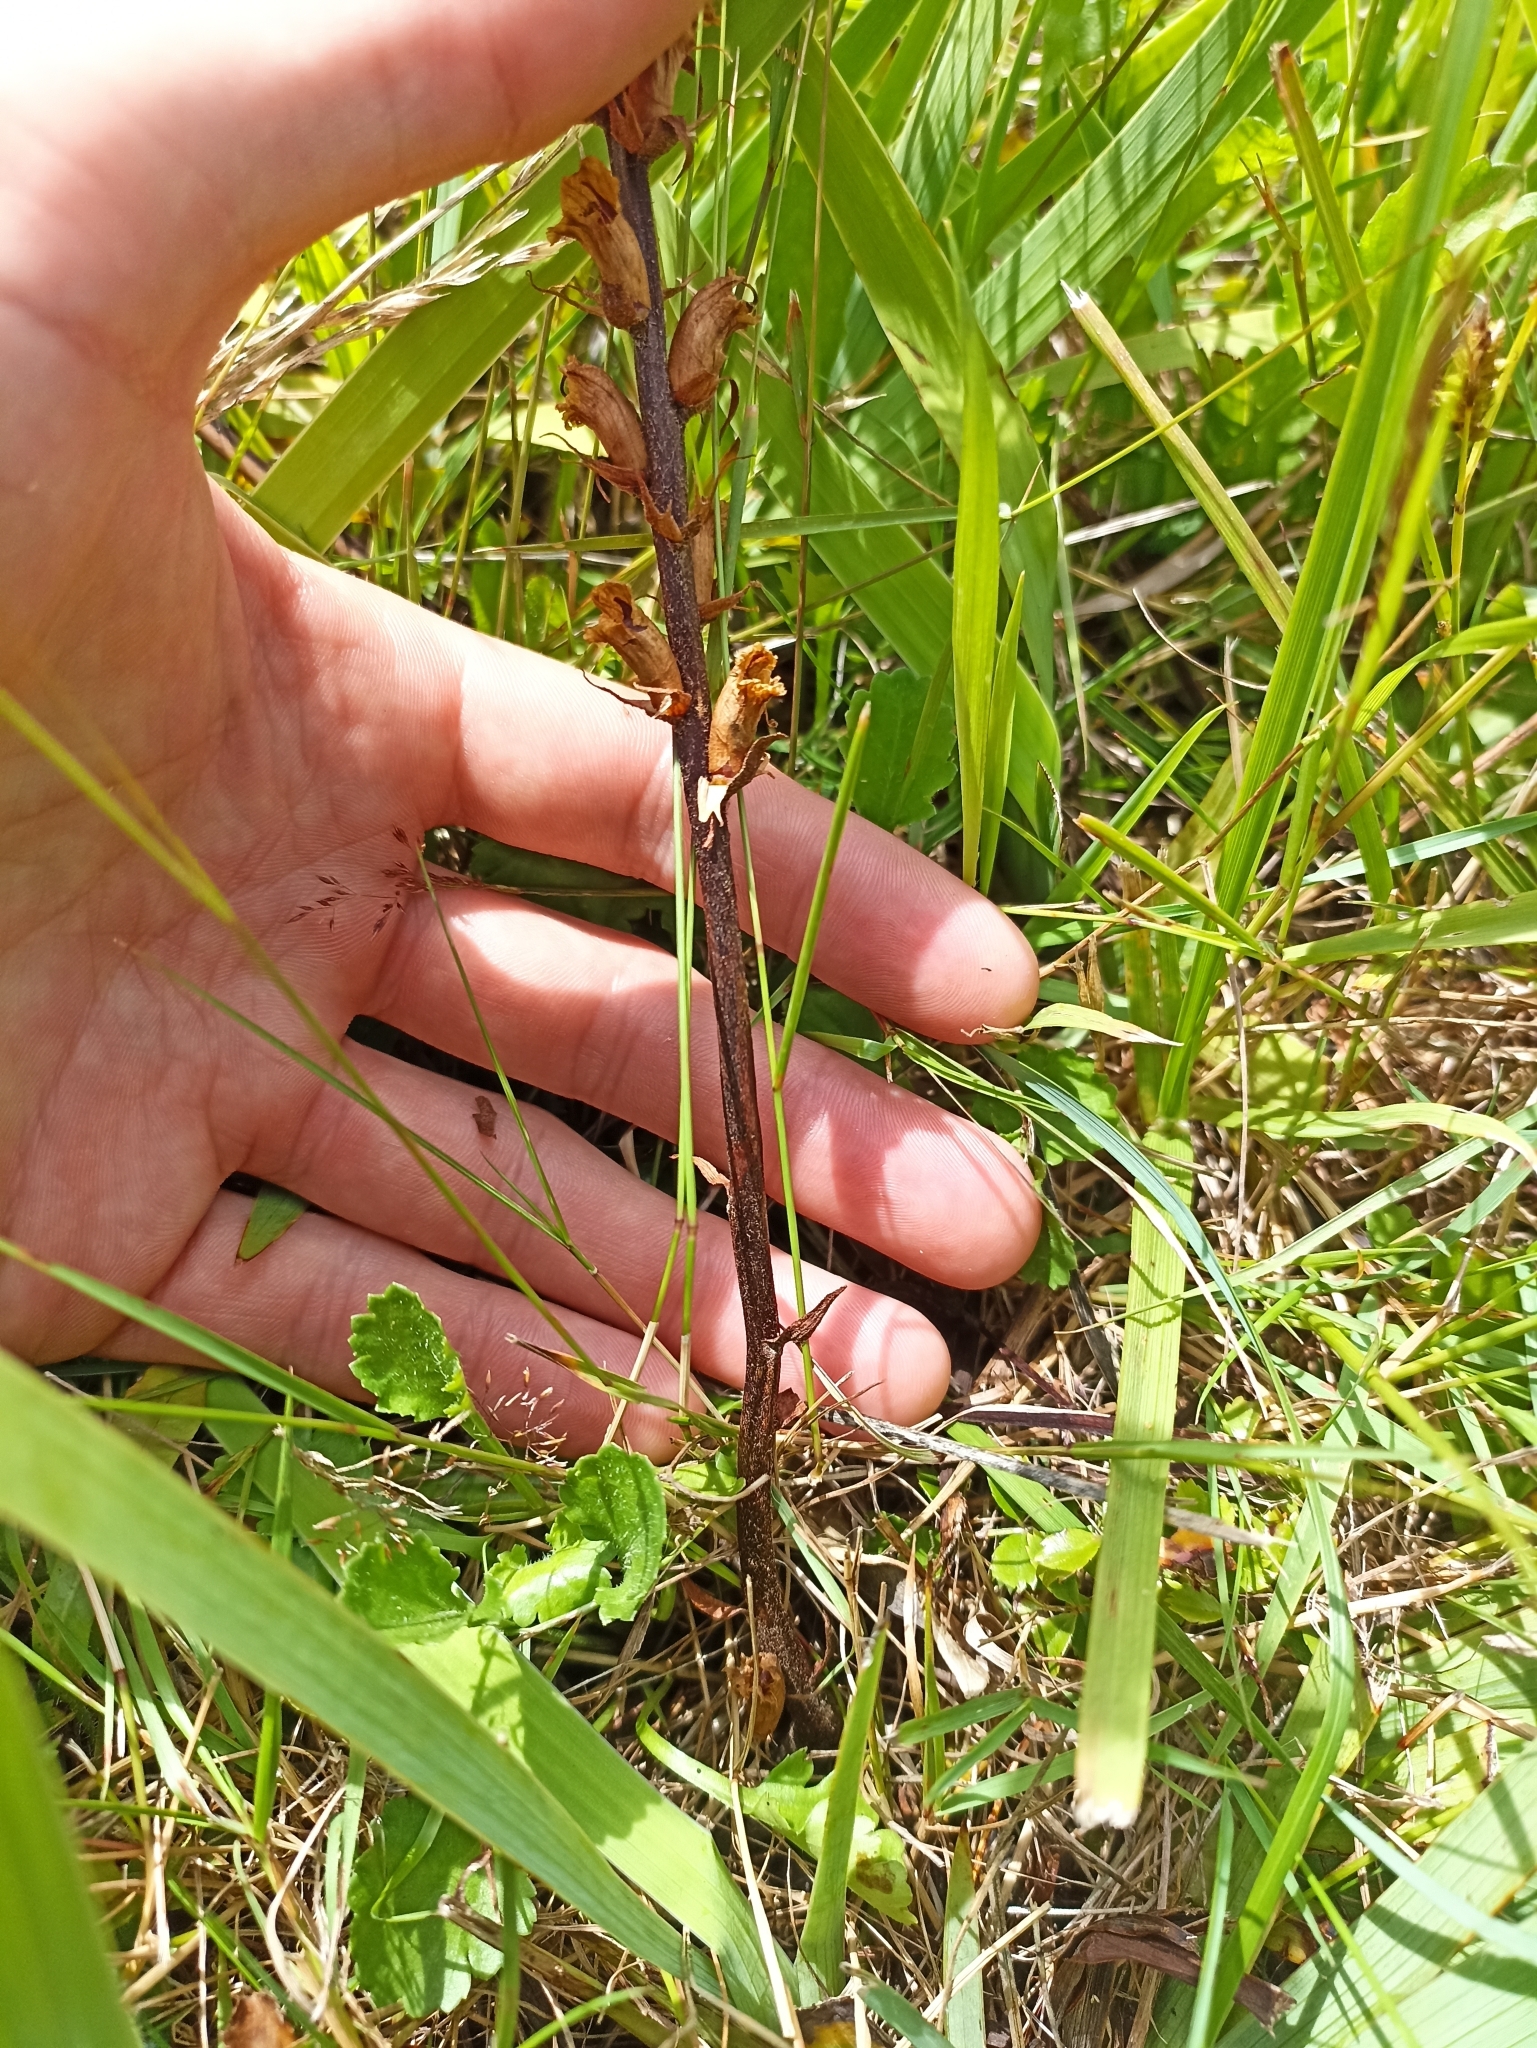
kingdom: Plantae
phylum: Tracheophyta
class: Magnoliopsida
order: Lamiales
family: Orobanchaceae
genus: Orobanche
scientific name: Orobanche minor
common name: Common broomrape
